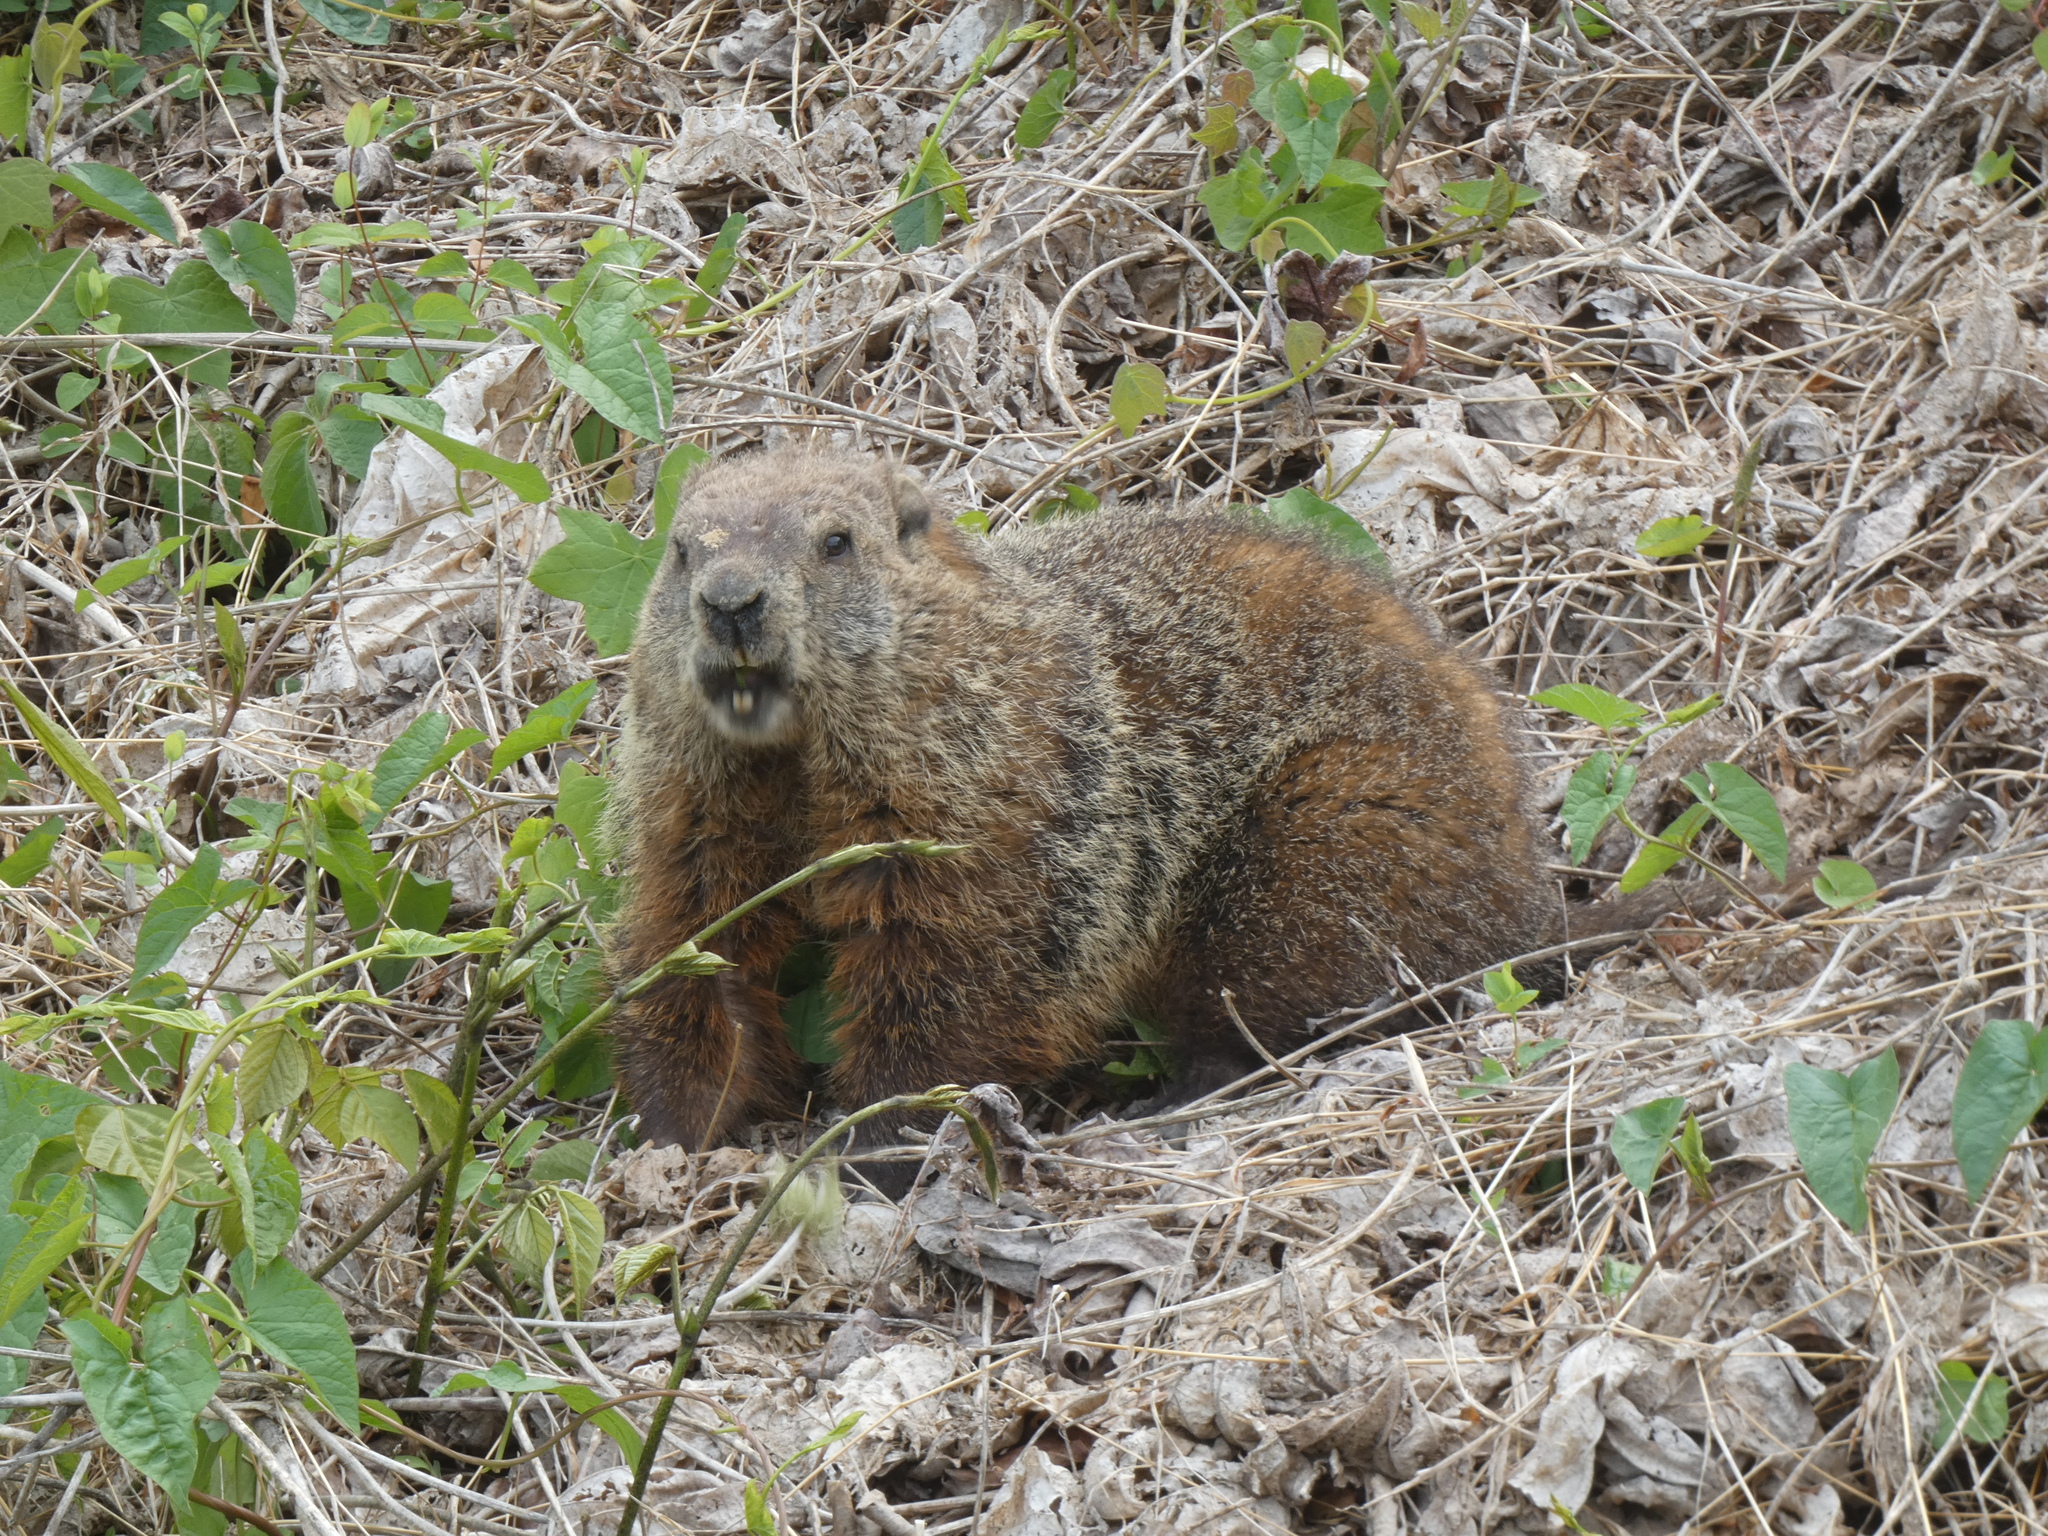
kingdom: Animalia
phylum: Chordata
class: Mammalia
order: Rodentia
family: Sciuridae
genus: Marmota
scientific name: Marmota monax
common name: Groundhog
